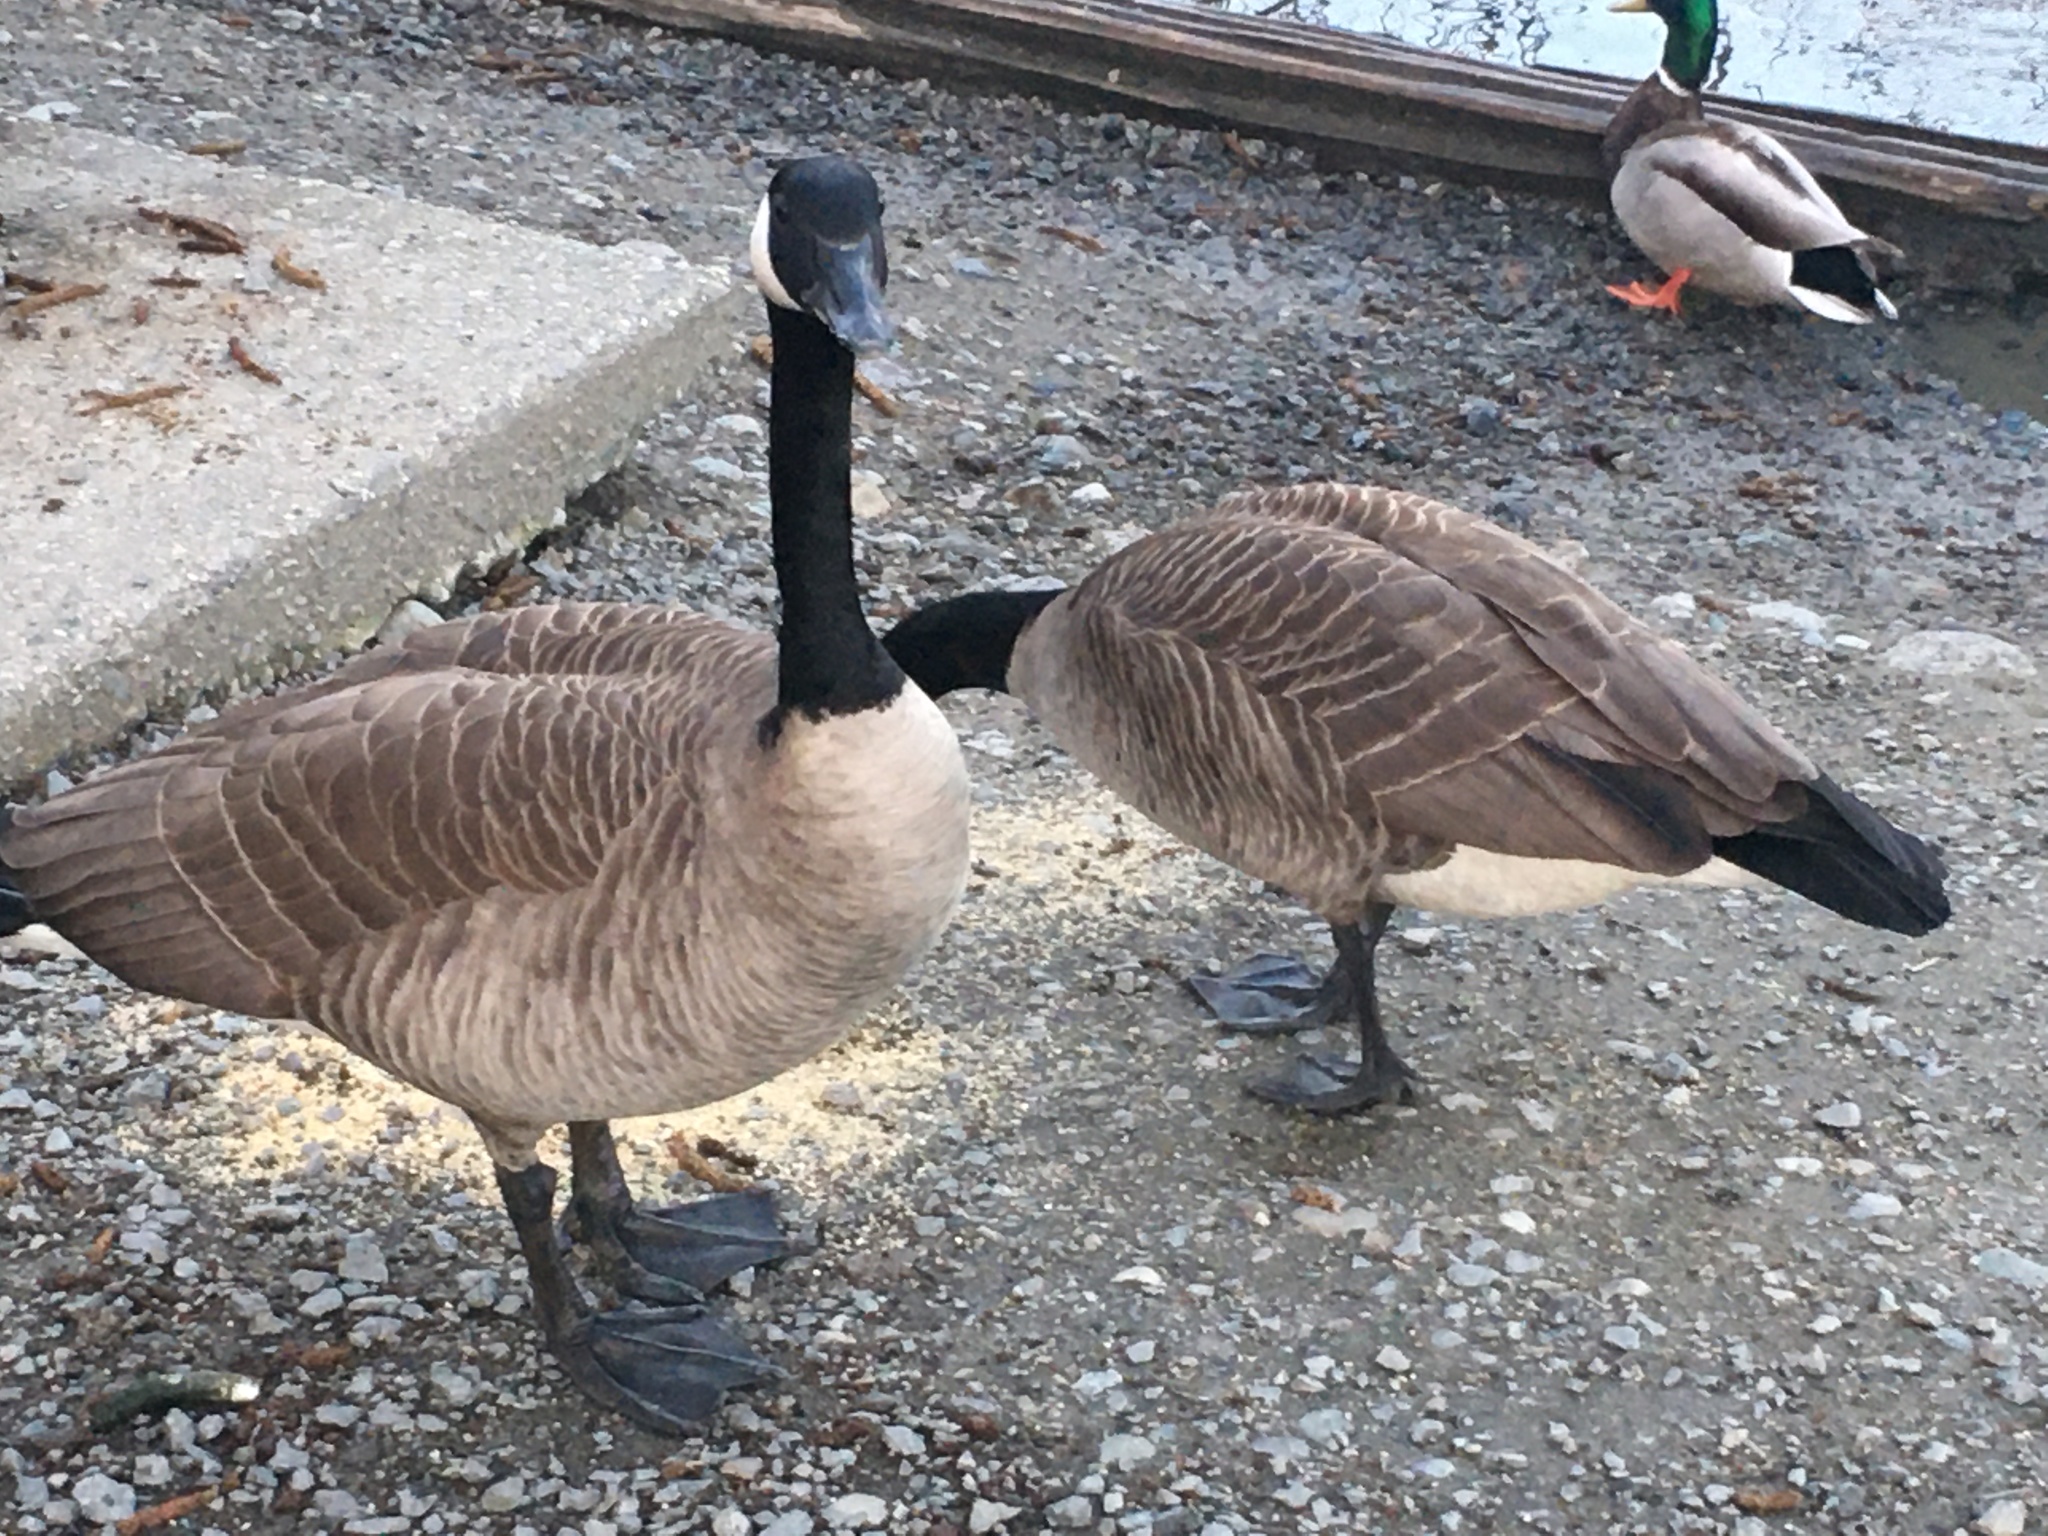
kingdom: Animalia
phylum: Chordata
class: Aves
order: Anseriformes
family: Anatidae
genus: Branta
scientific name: Branta canadensis
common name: Canada goose
